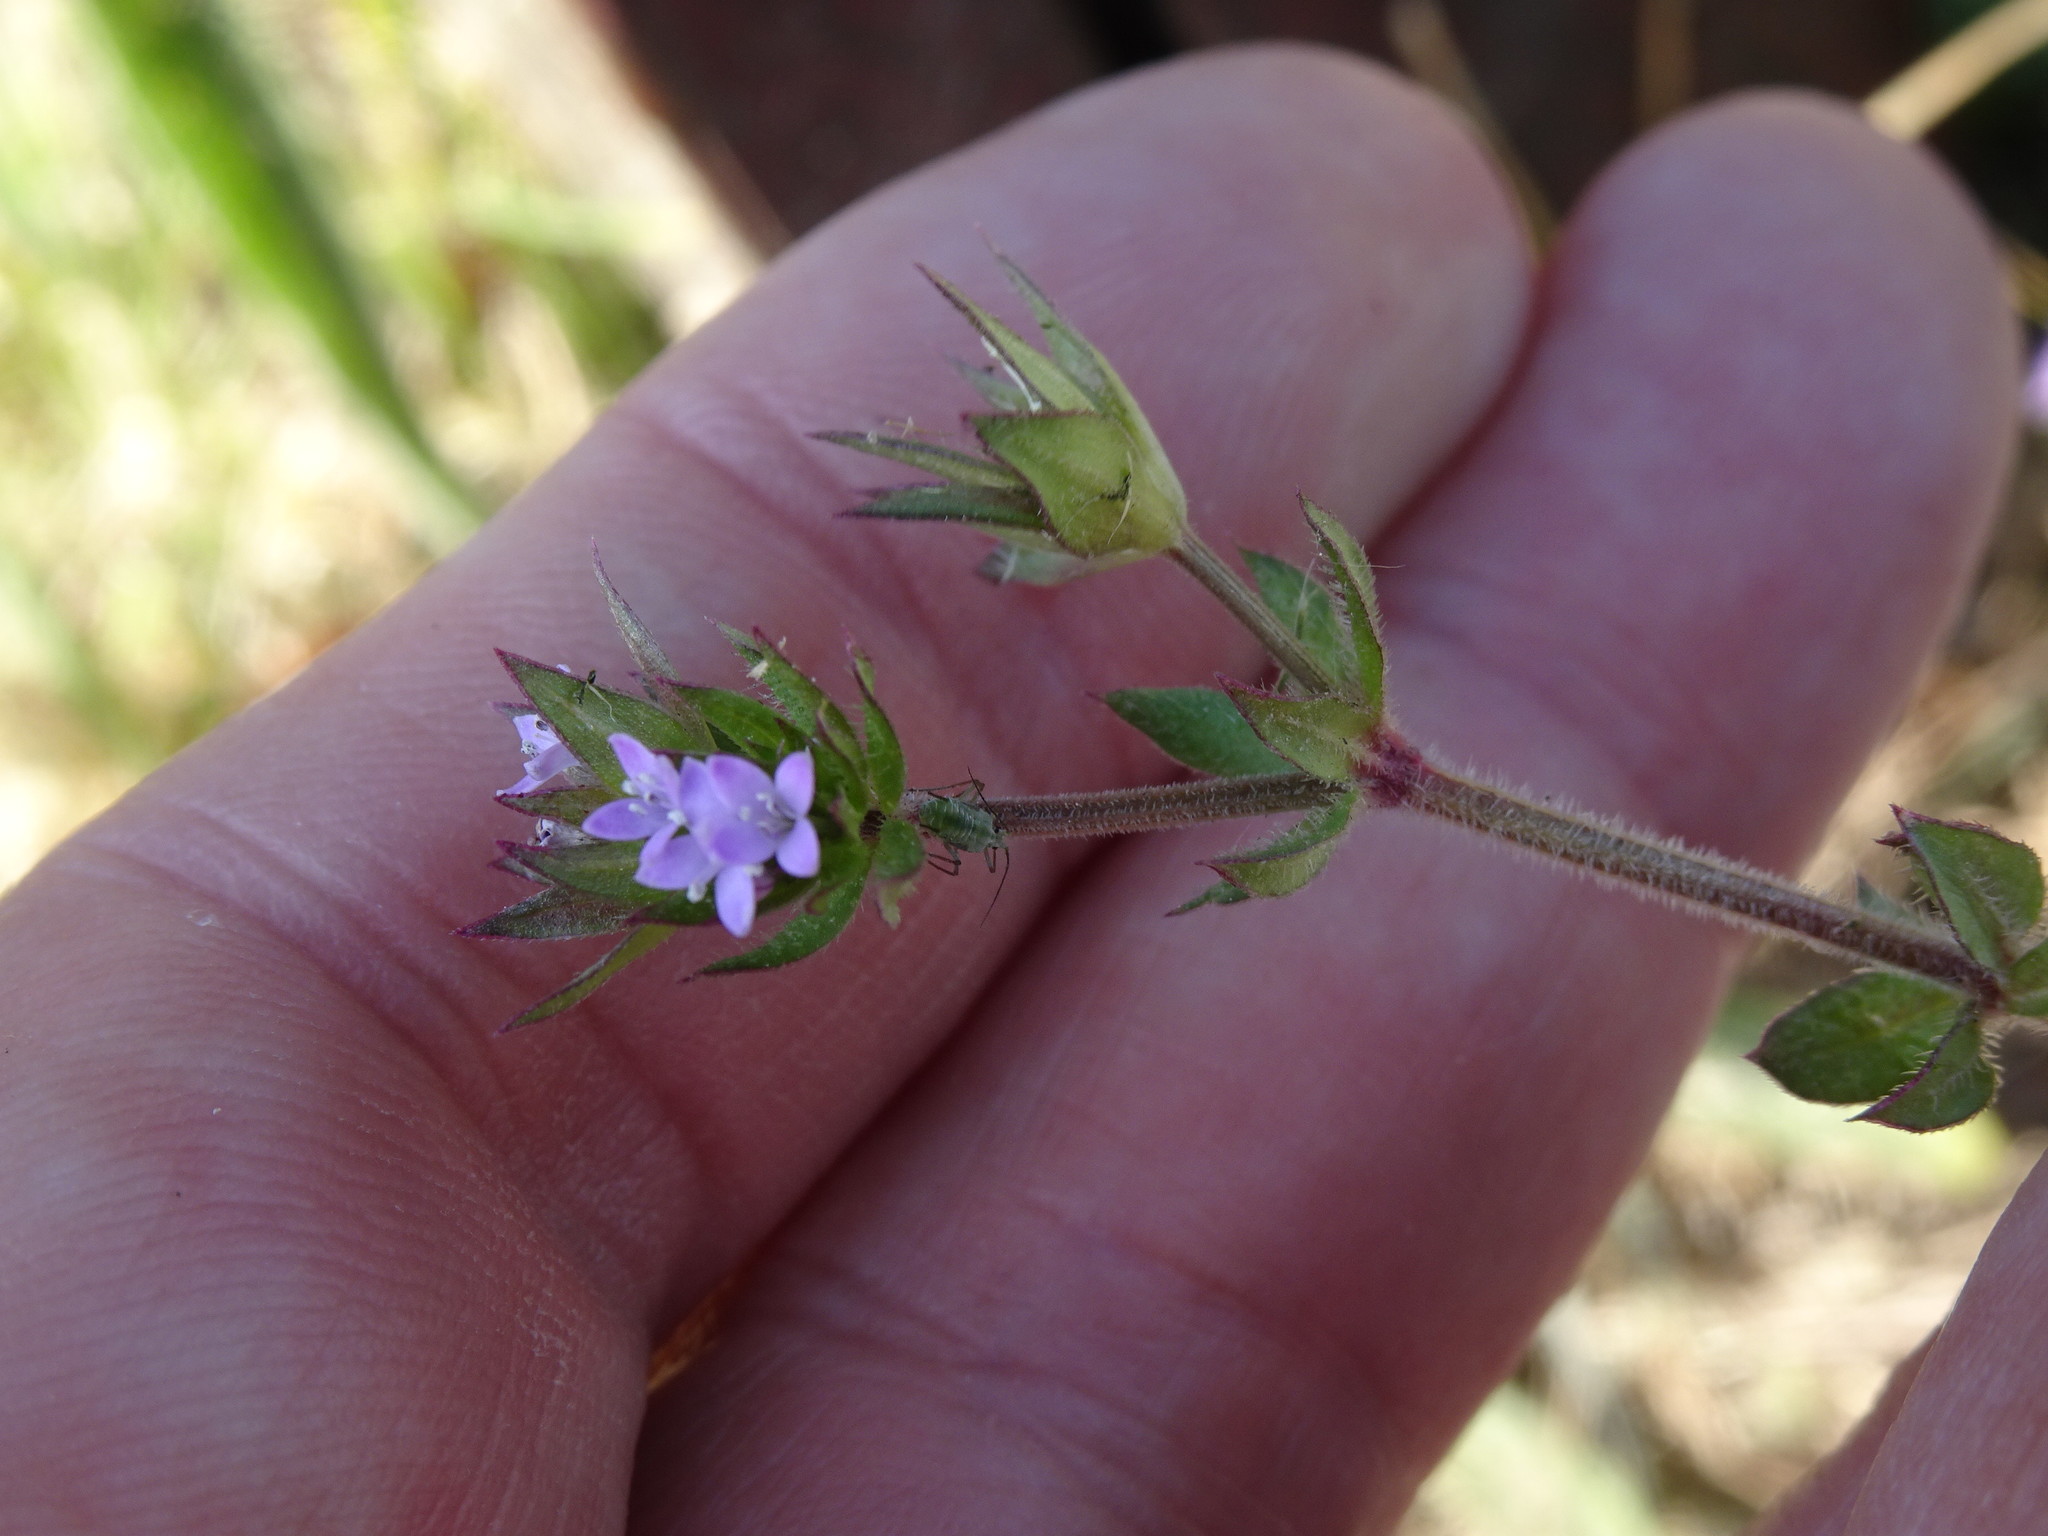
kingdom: Plantae
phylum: Tracheophyta
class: Magnoliopsida
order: Gentianales
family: Rubiaceae
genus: Sherardia
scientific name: Sherardia arvensis
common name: Field madder
